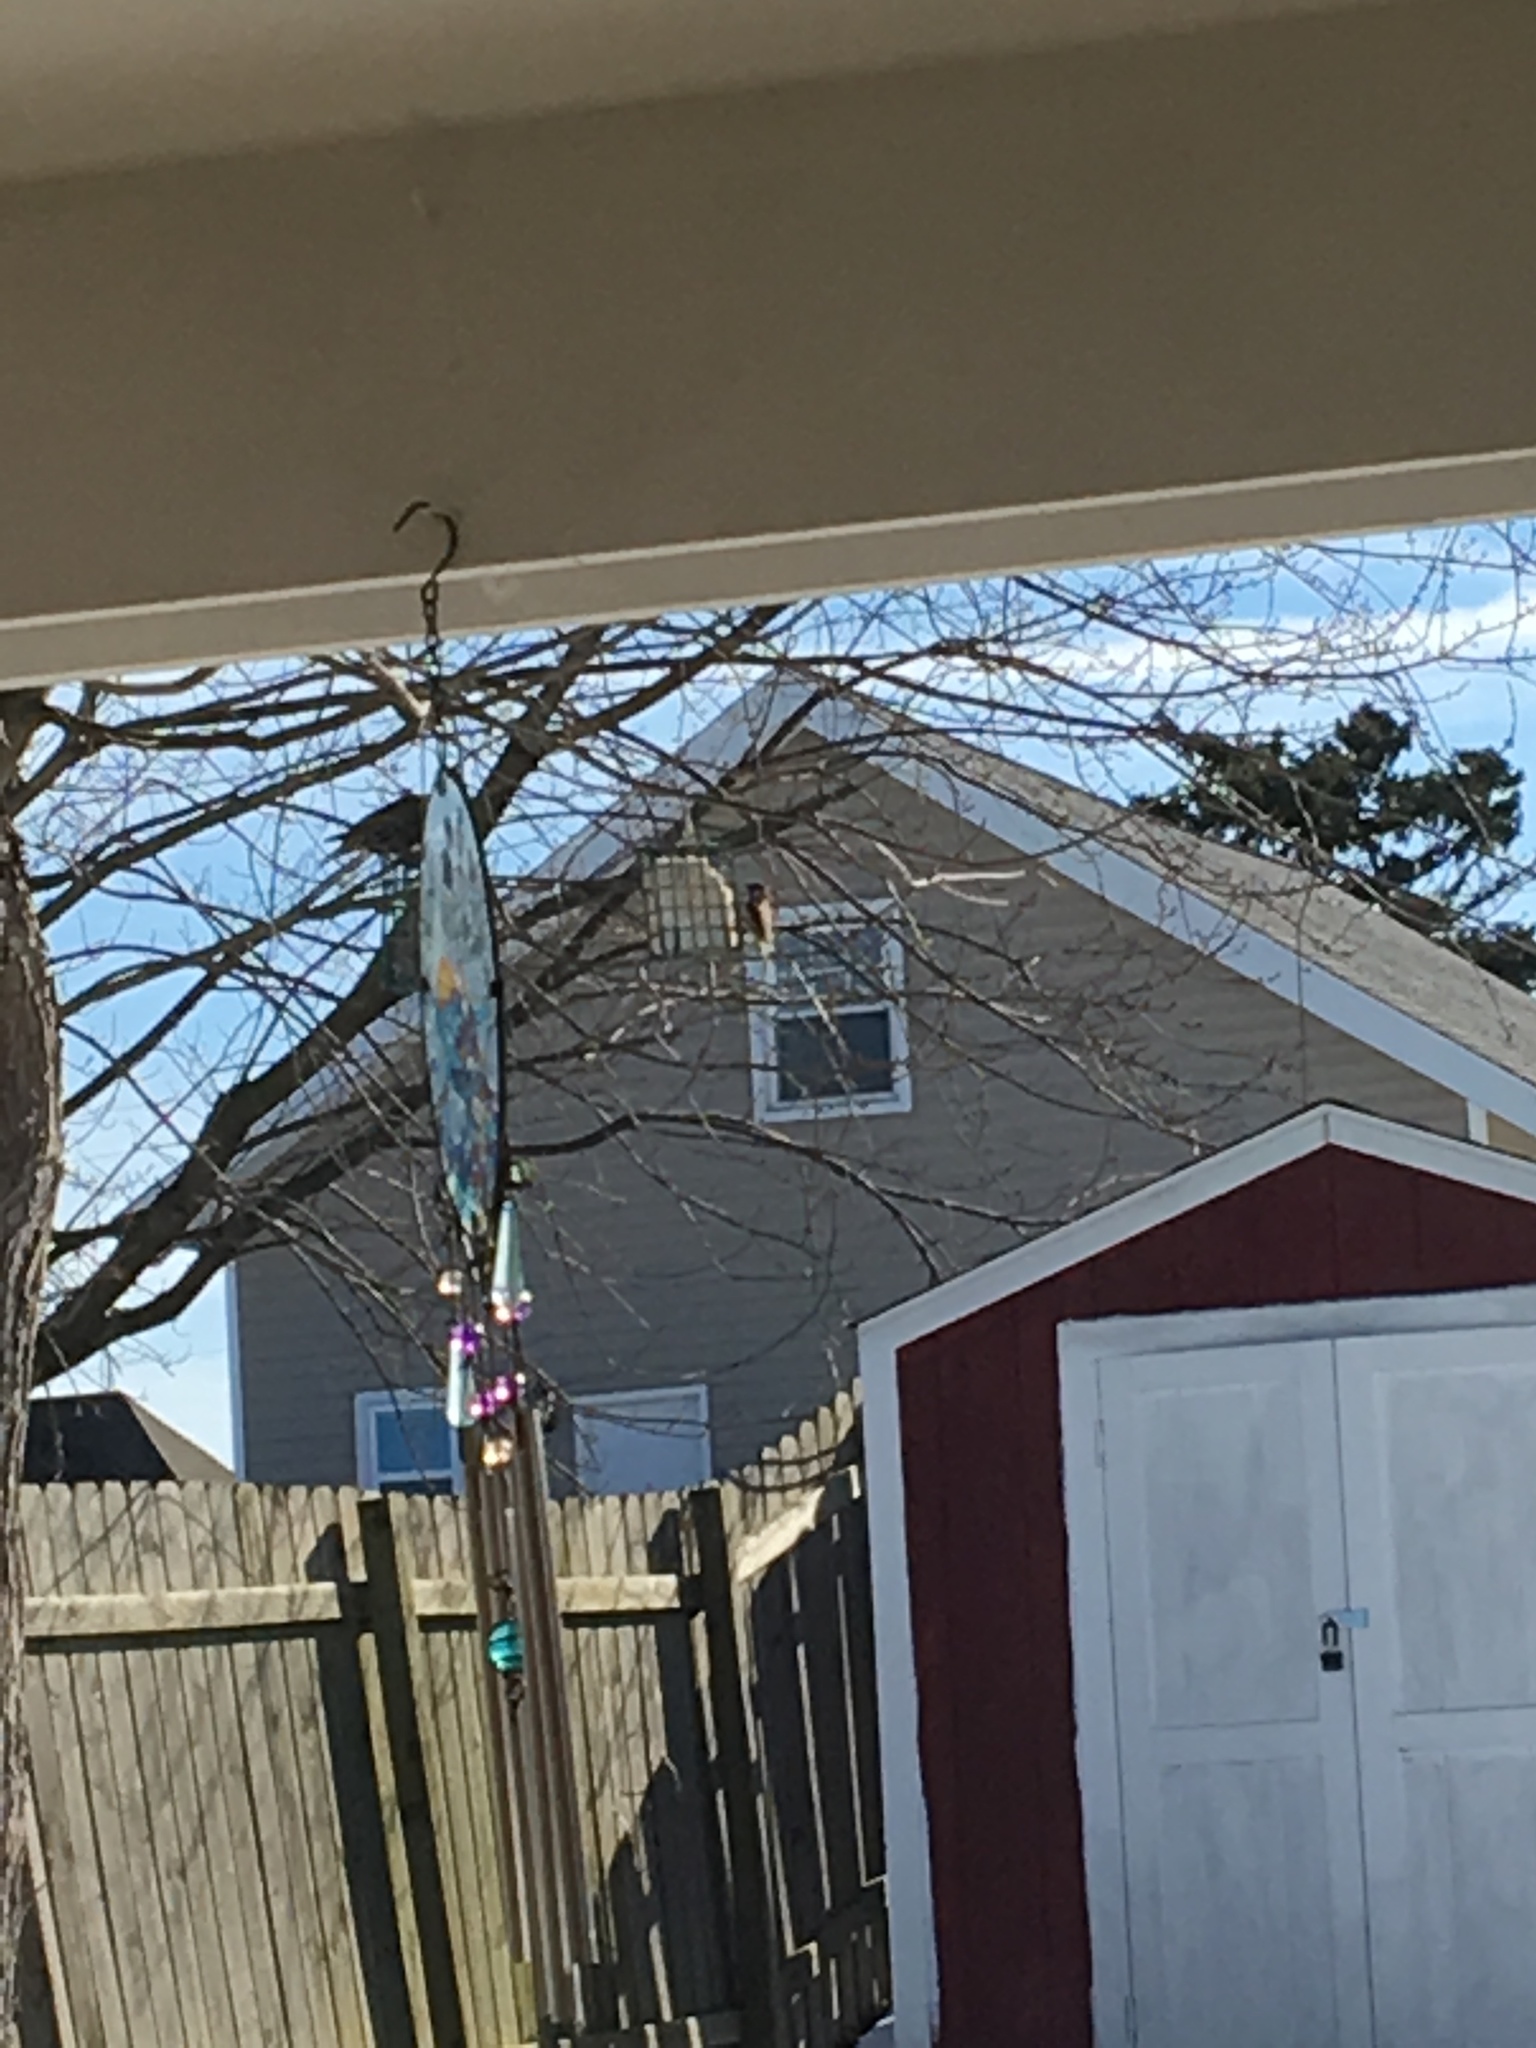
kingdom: Animalia
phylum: Chordata
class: Aves
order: Passeriformes
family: Passeridae
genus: Passer
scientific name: Passer domesticus
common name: House sparrow
